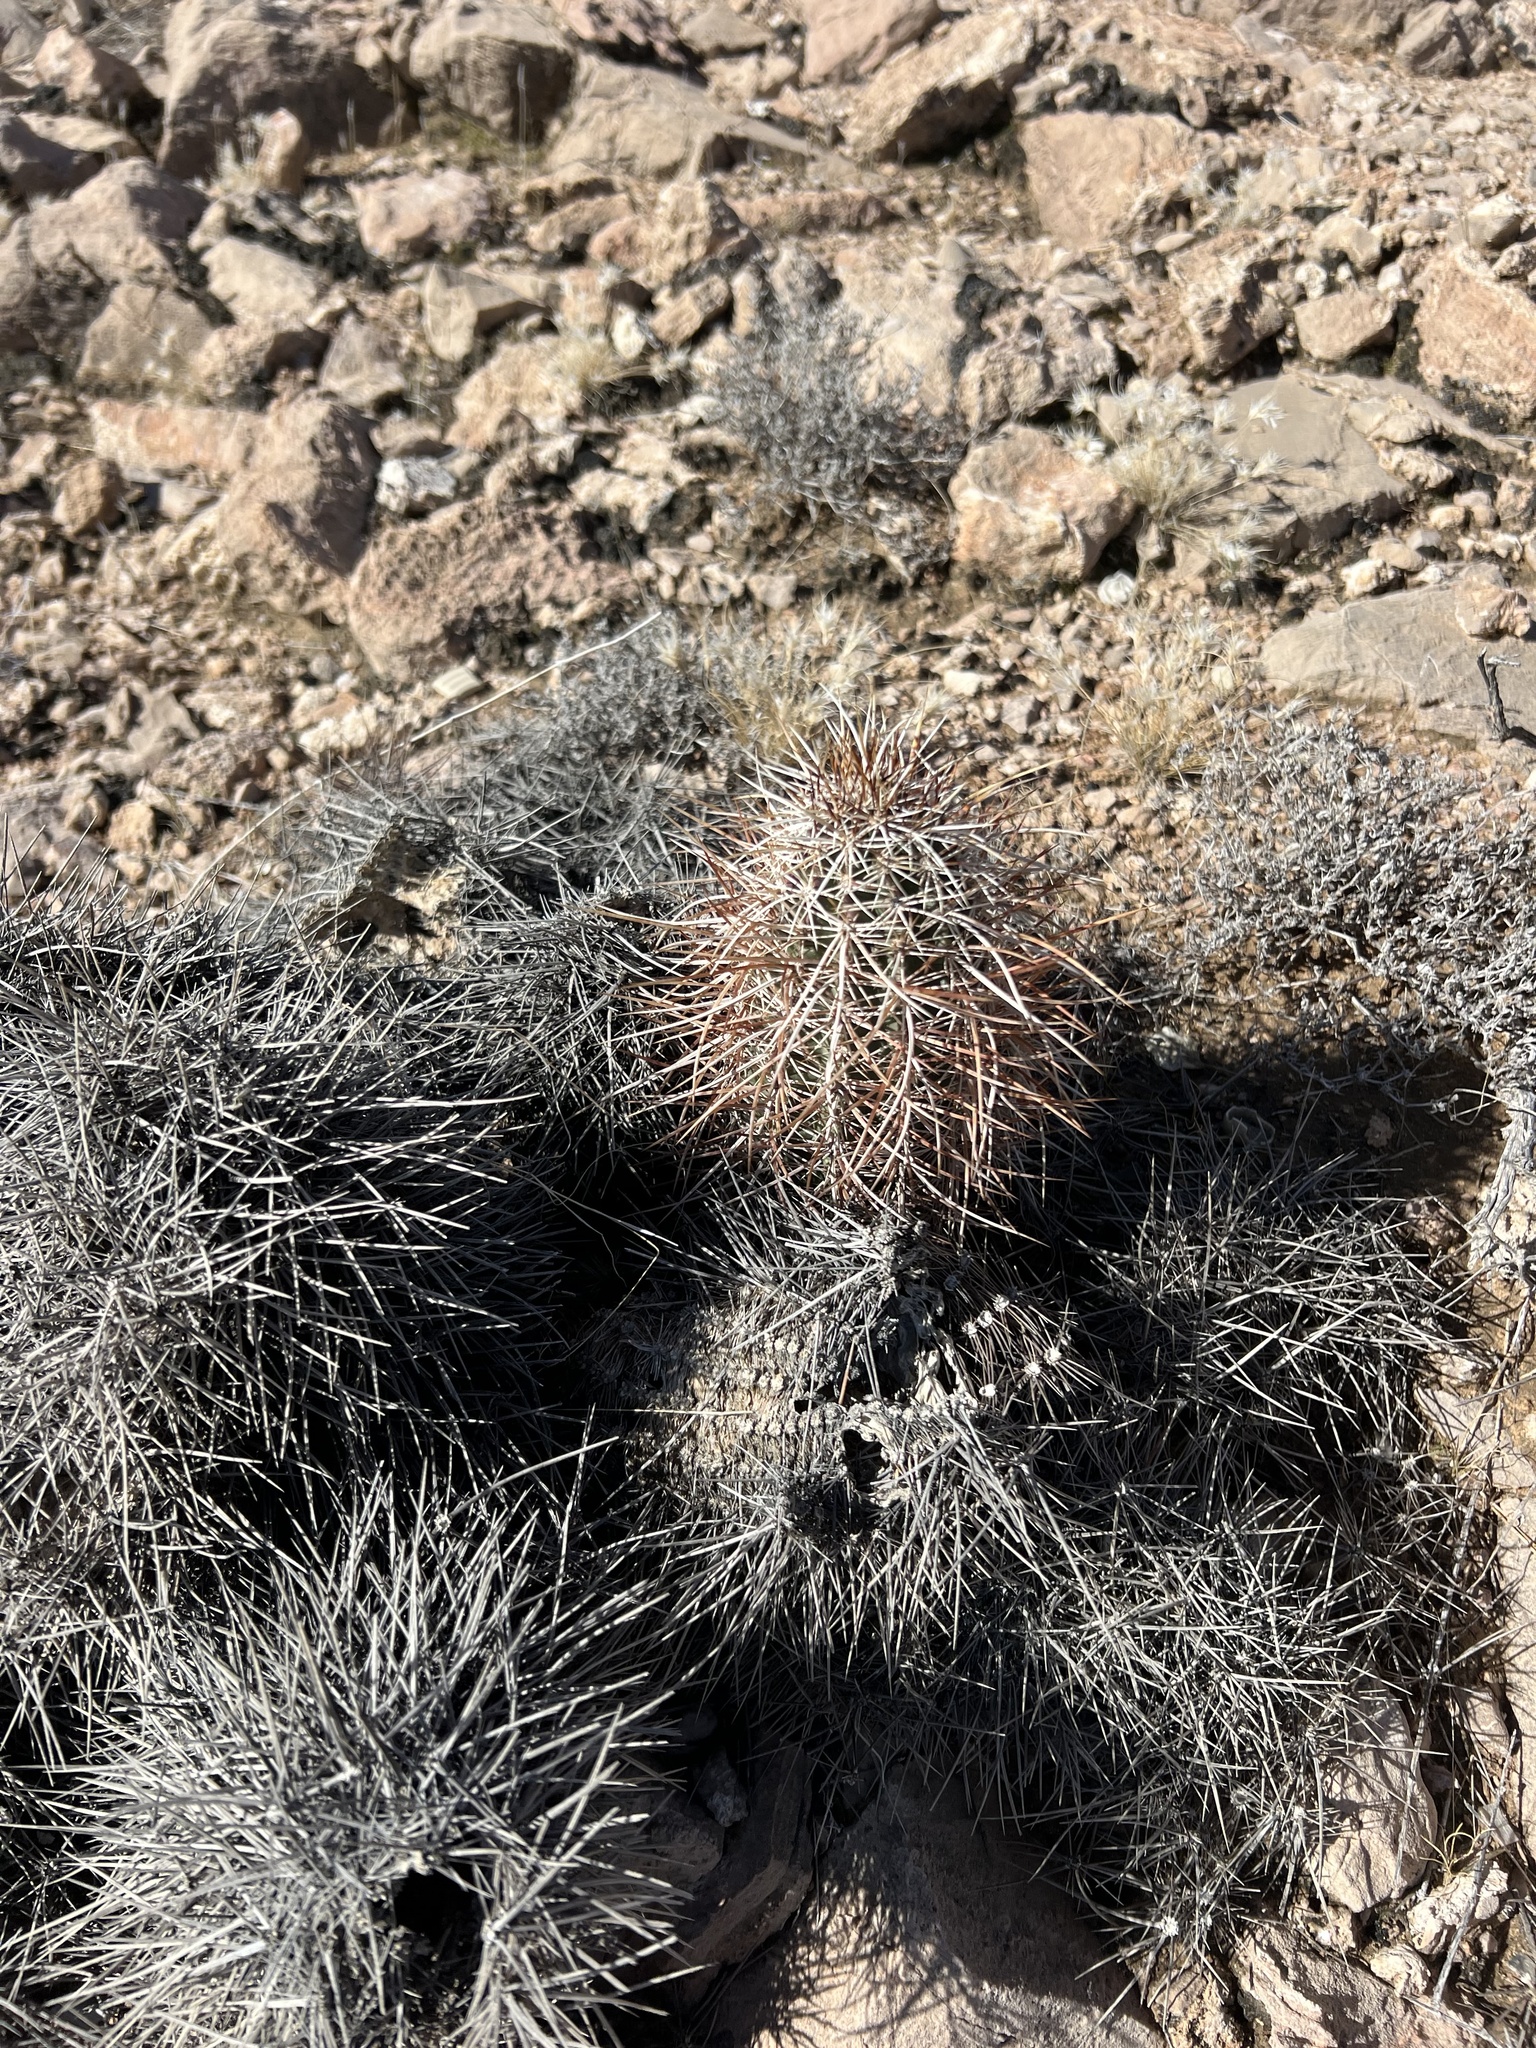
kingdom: Plantae
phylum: Tracheophyta
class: Magnoliopsida
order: Caryophyllales
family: Cactaceae
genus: Echinocereus
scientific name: Echinocereus engelmannii
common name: Engelmann's hedgehog cactus
